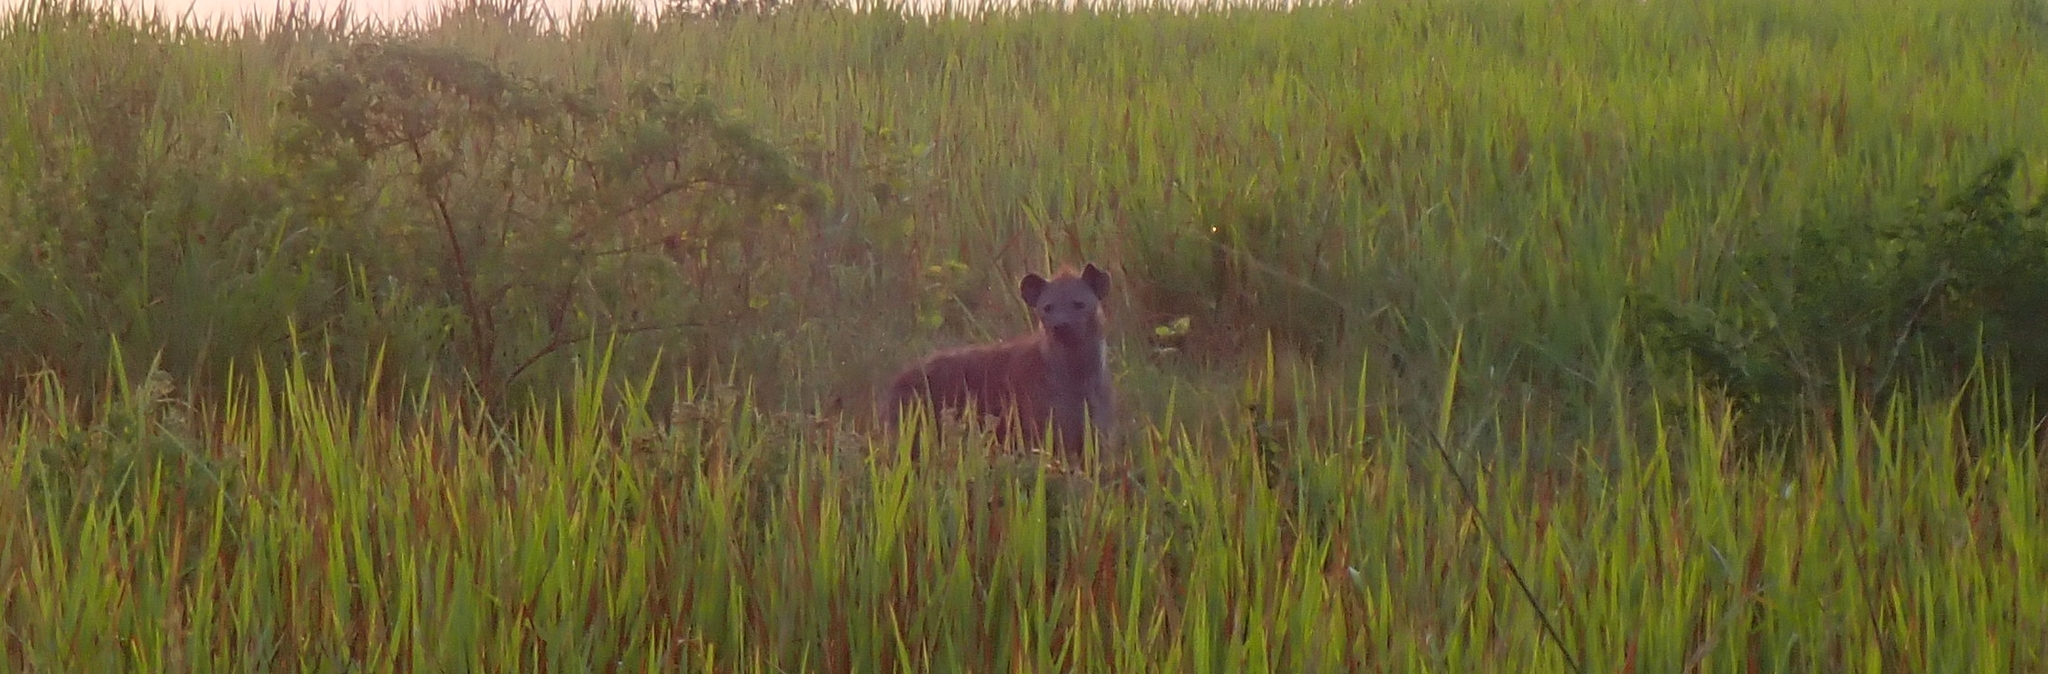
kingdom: Animalia
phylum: Chordata
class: Mammalia
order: Carnivora
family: Hyaenidae
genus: Crocuta
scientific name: Crocuta crocuta
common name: Spotted hyaena
